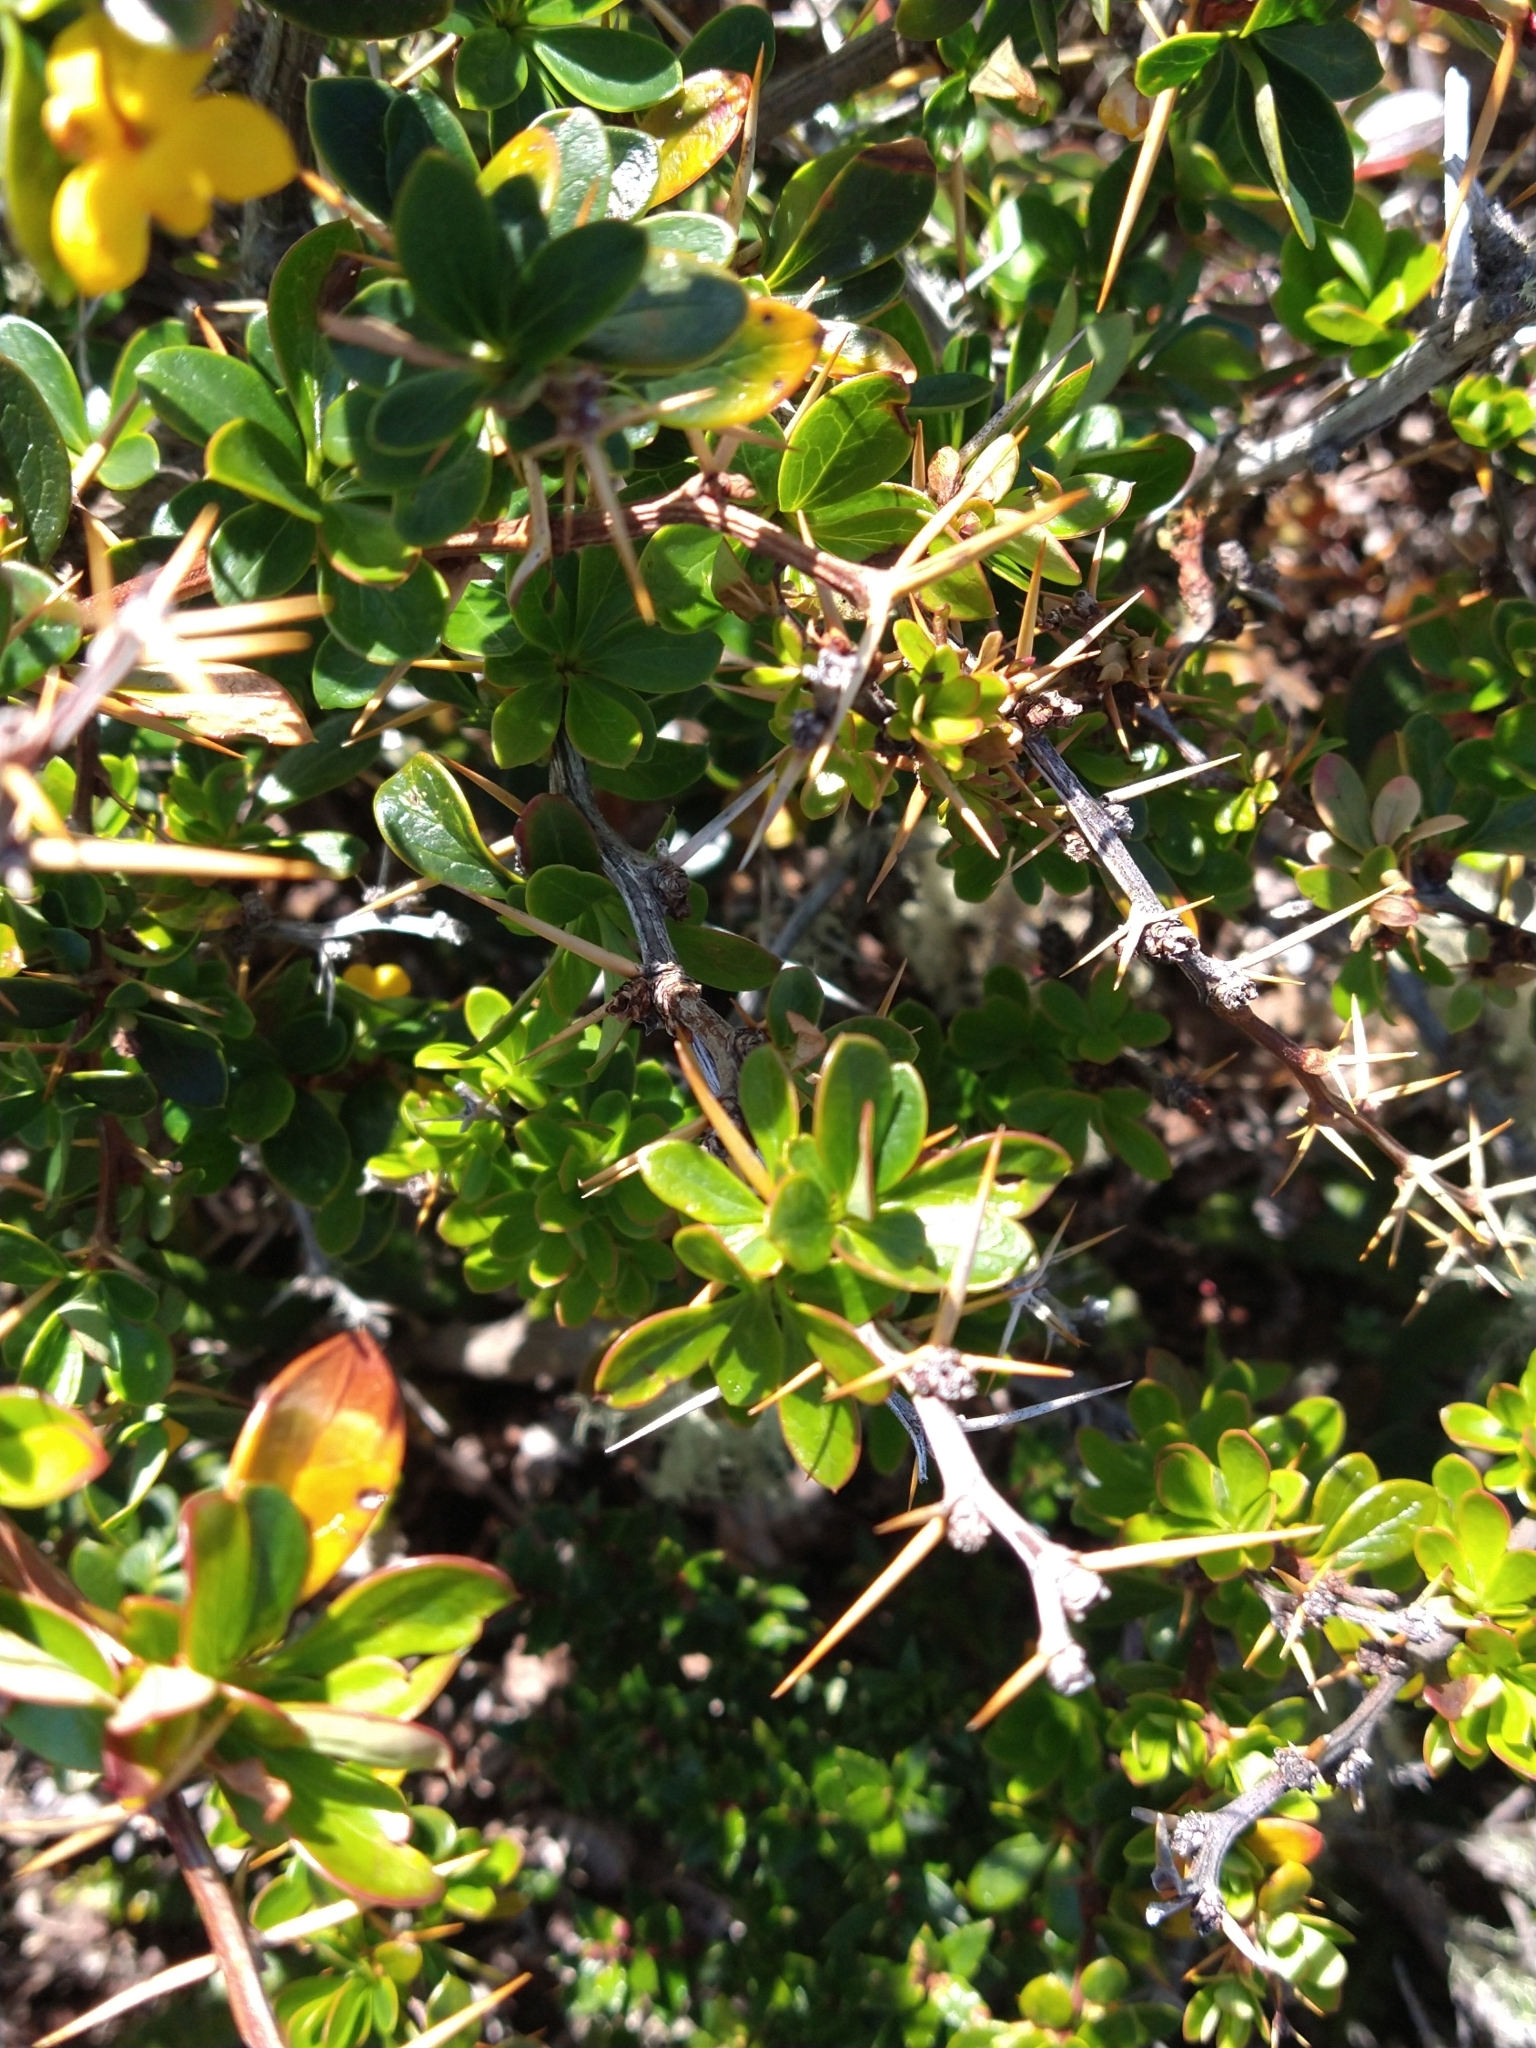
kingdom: Plantae
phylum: Tracheophyta
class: Magnoliopsida
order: Ranunculales
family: Berberidaceae
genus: Berberis
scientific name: Berberis microphylla
